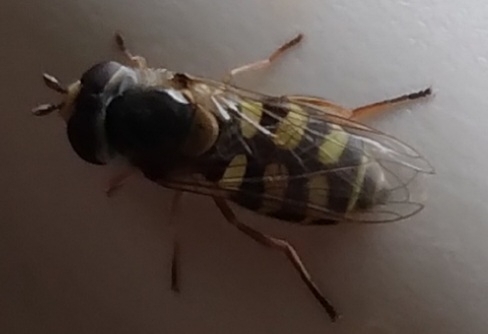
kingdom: Animalia
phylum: Arthropoda
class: Insecta
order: Diptera
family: Syrphidae
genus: Eupeodes
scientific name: Eupeodes corollae
